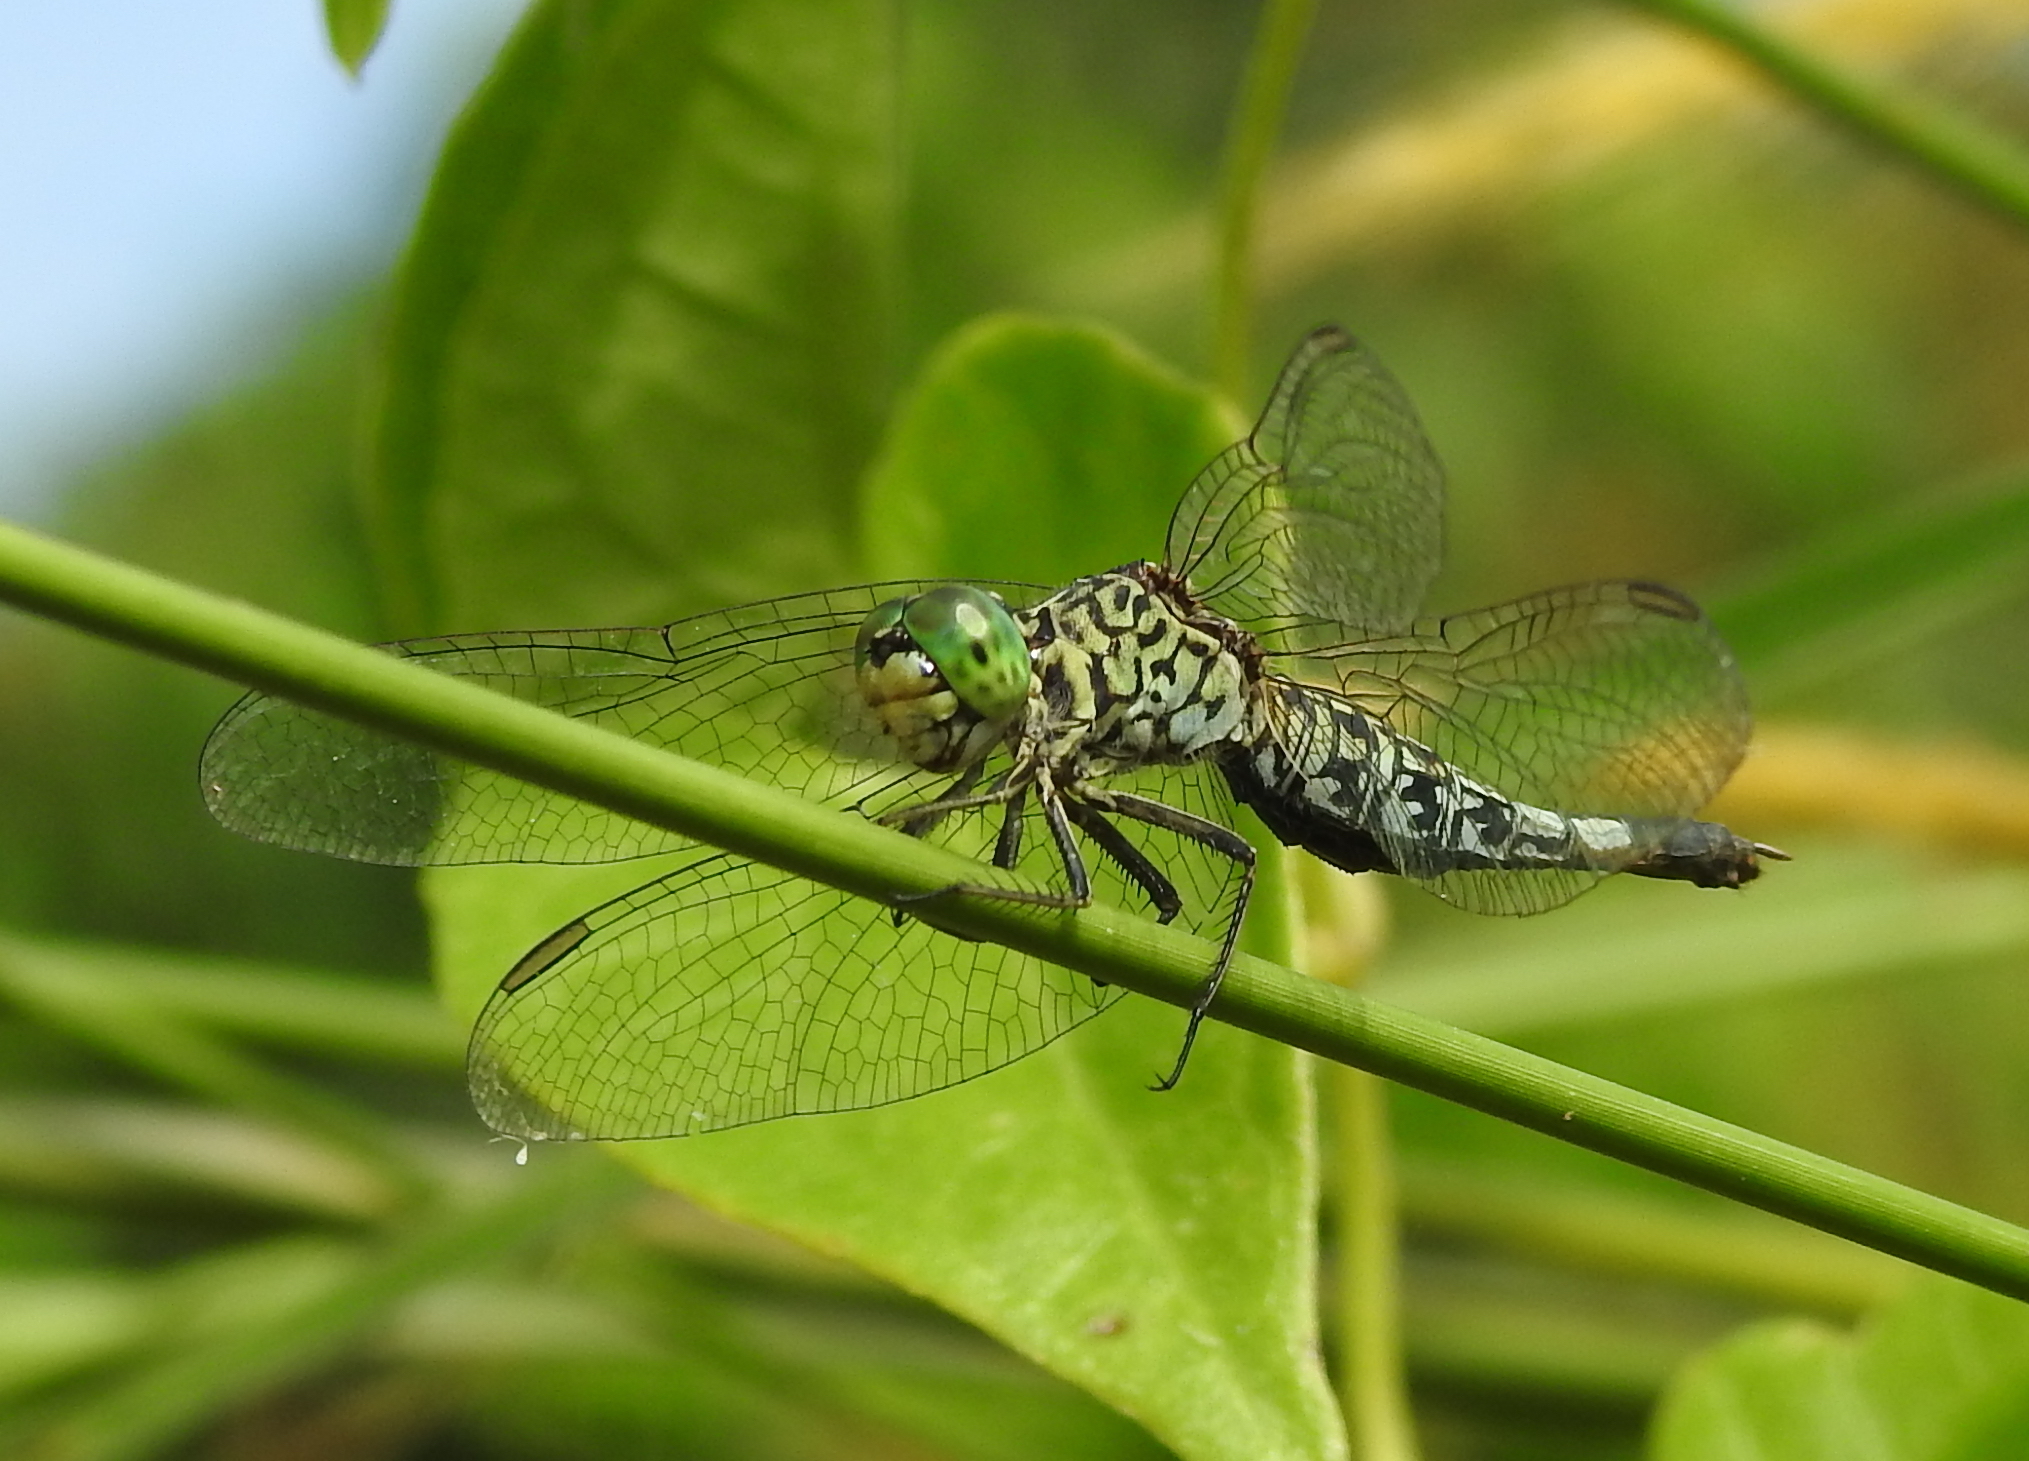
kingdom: Animalia
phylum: Arthropoda
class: Insecta
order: Odonata
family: Libellulidae
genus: Acisoma
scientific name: Acisoma panorpoides
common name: Asian pintail
